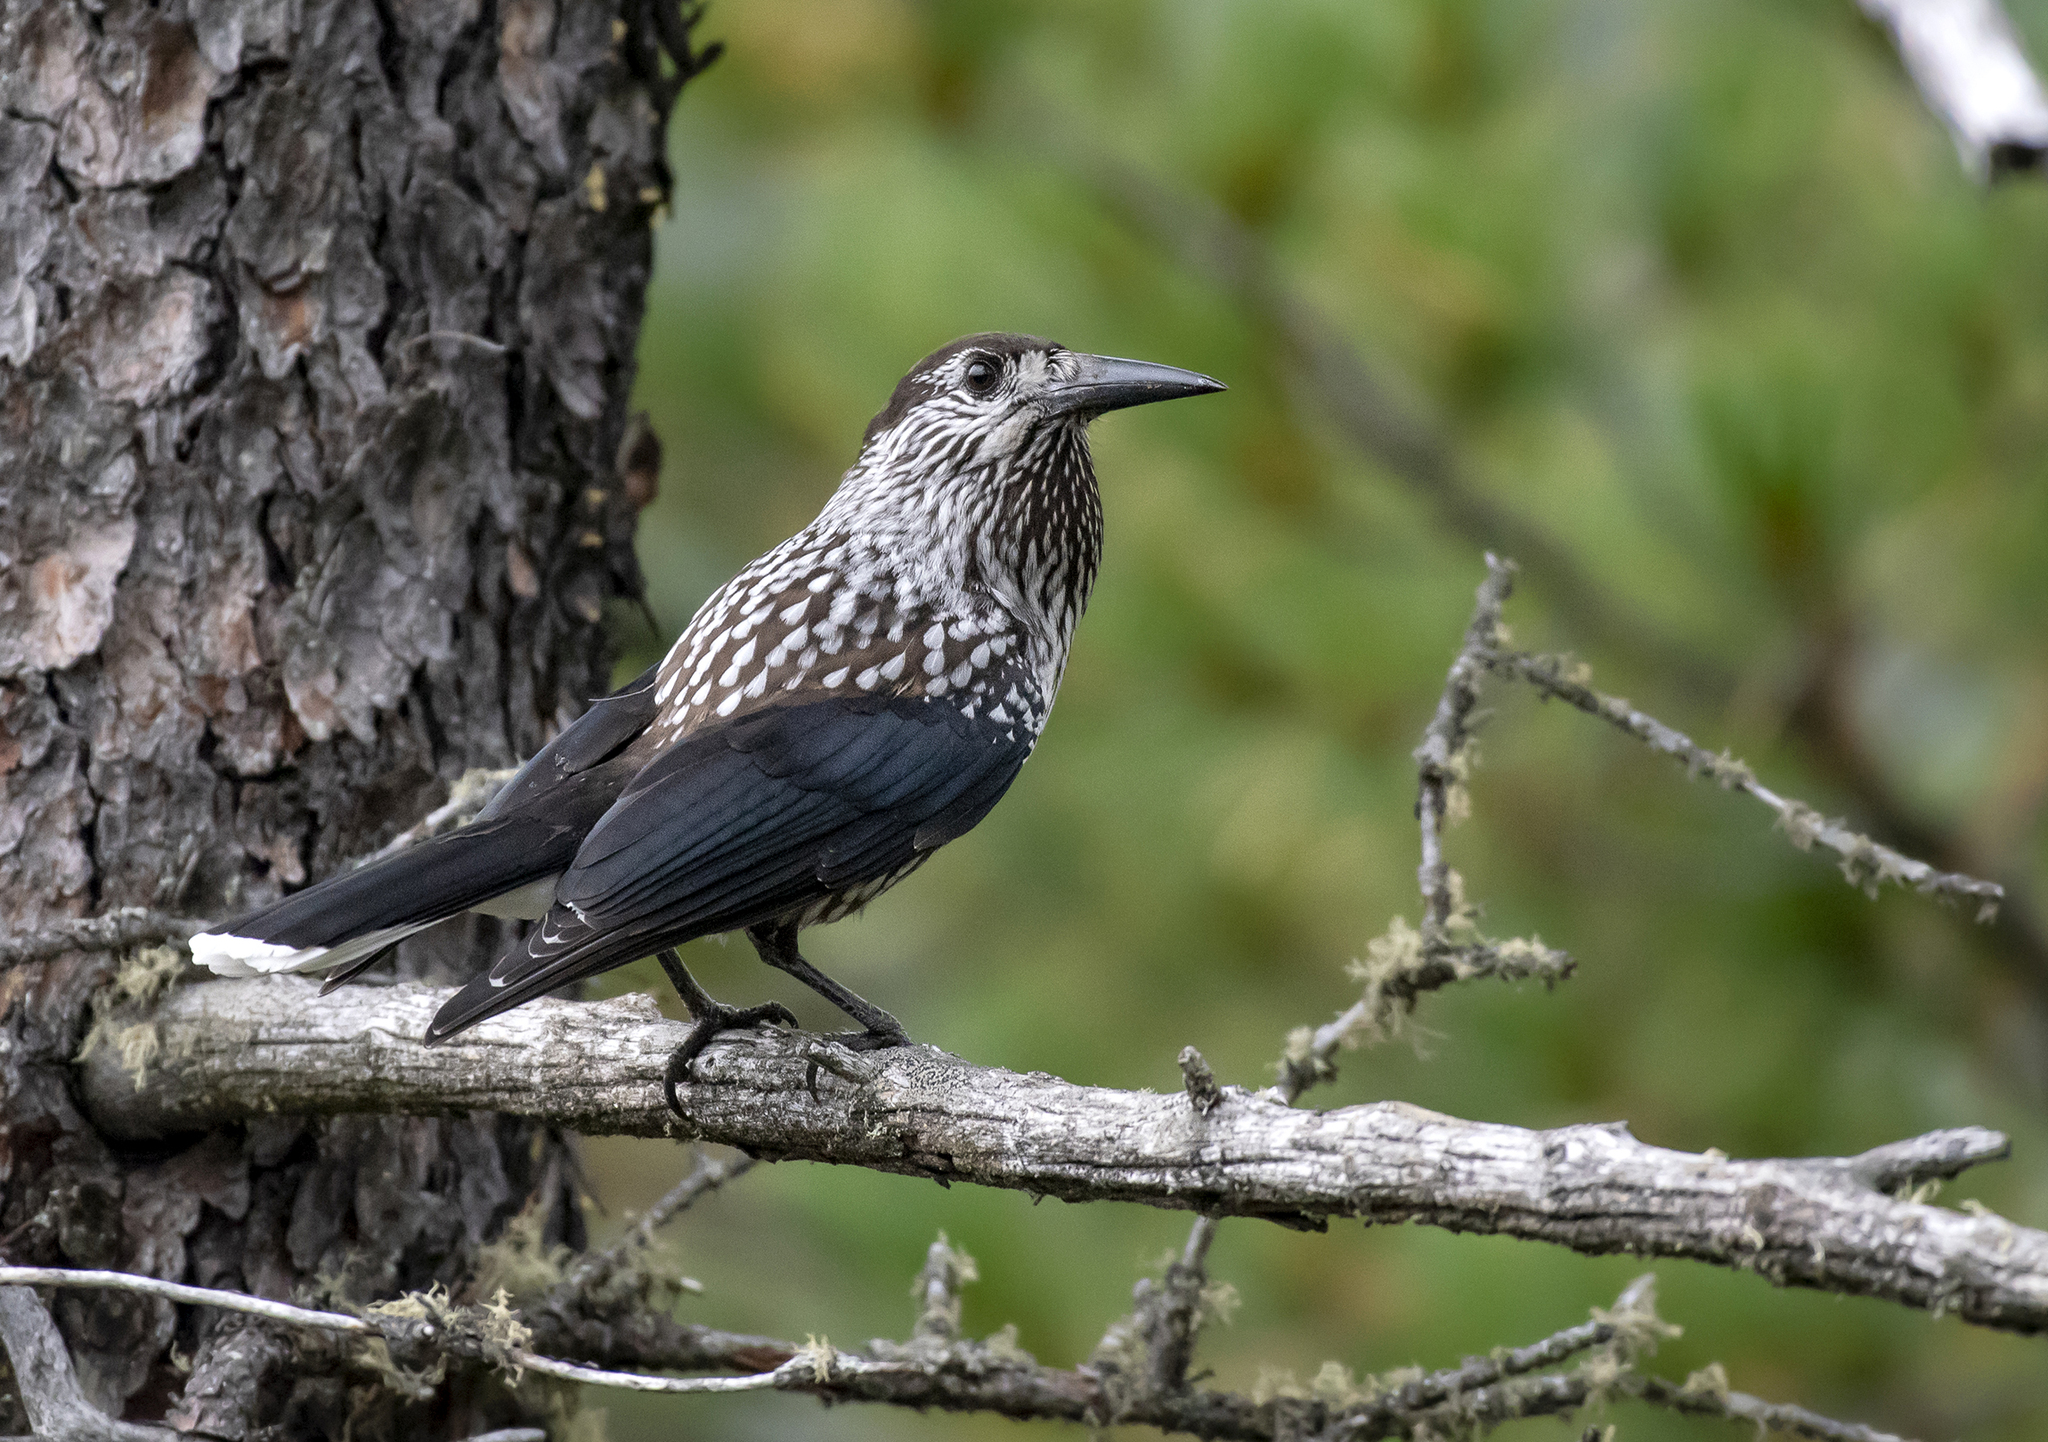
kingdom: Animalia
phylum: Chordata
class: Aves
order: Passeriformes
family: Corvidae
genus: Nucifraga
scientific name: Nucifraga caryocatactes
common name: Spotted nutcracker
